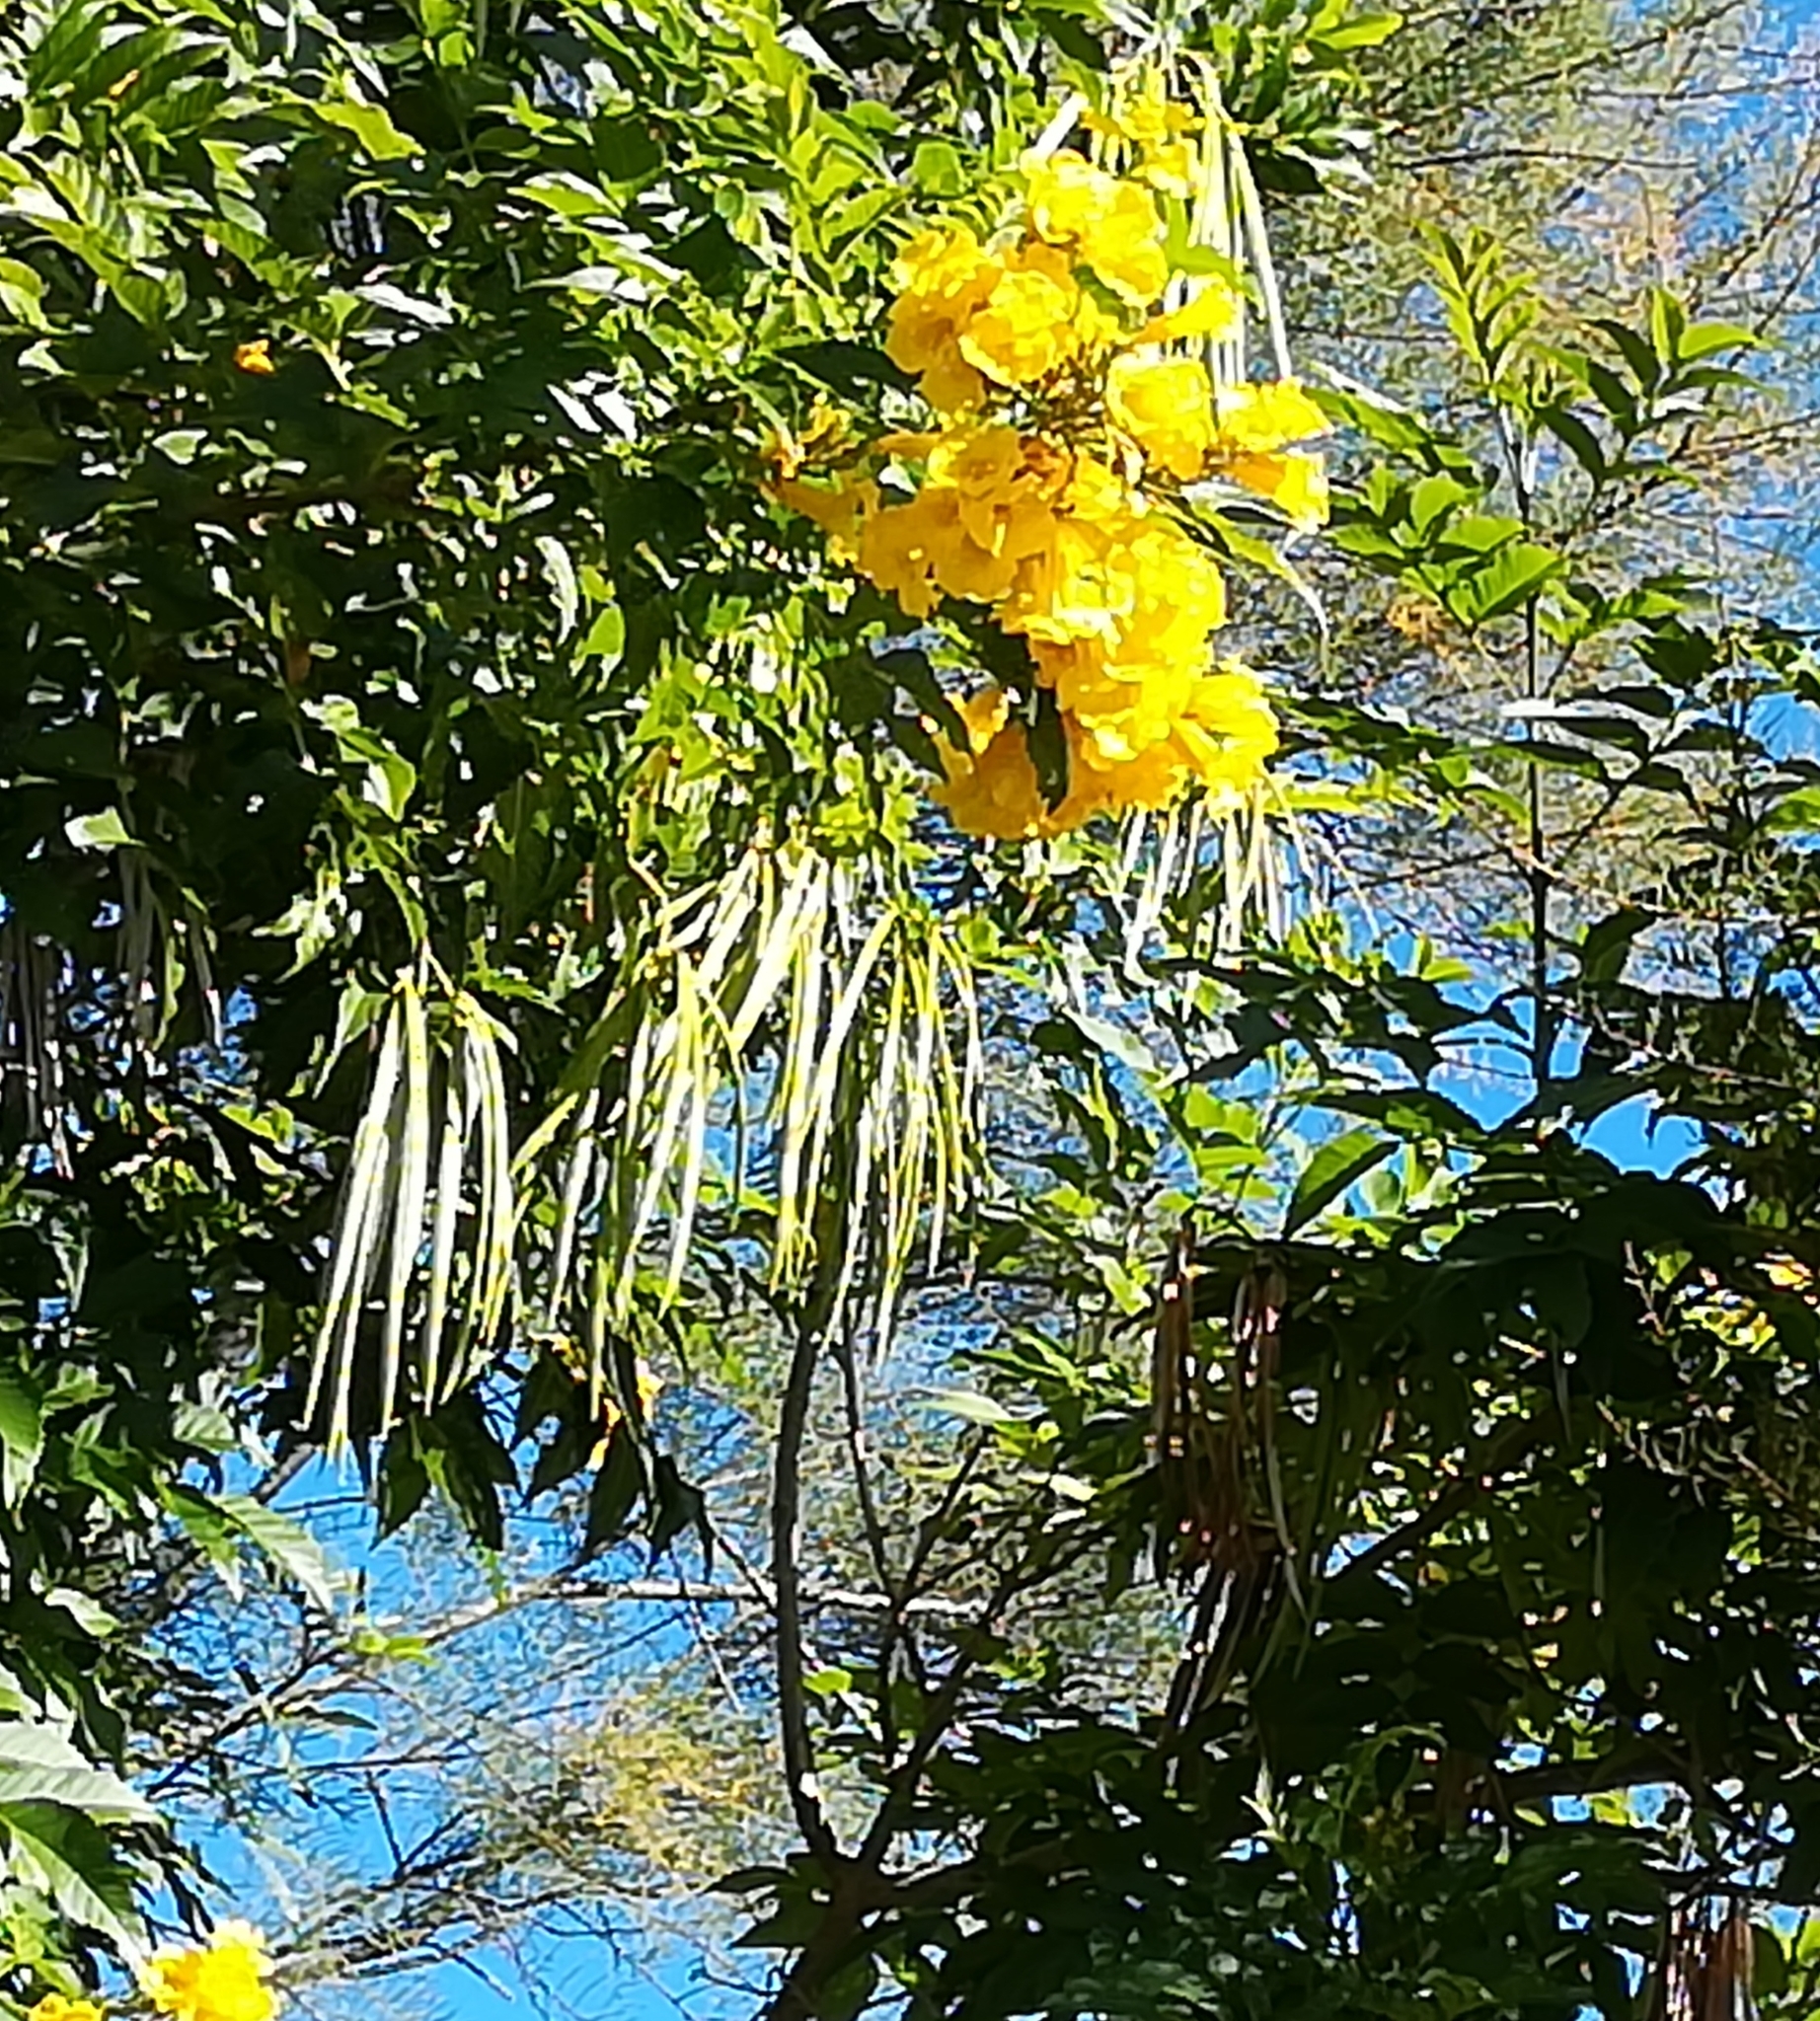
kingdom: Plantae
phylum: Tracheophyta
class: Magnoliopsida
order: Lamiales
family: Bignoniaceae
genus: Tecoma
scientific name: Tecoma stans
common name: Yellow trumpetbush
